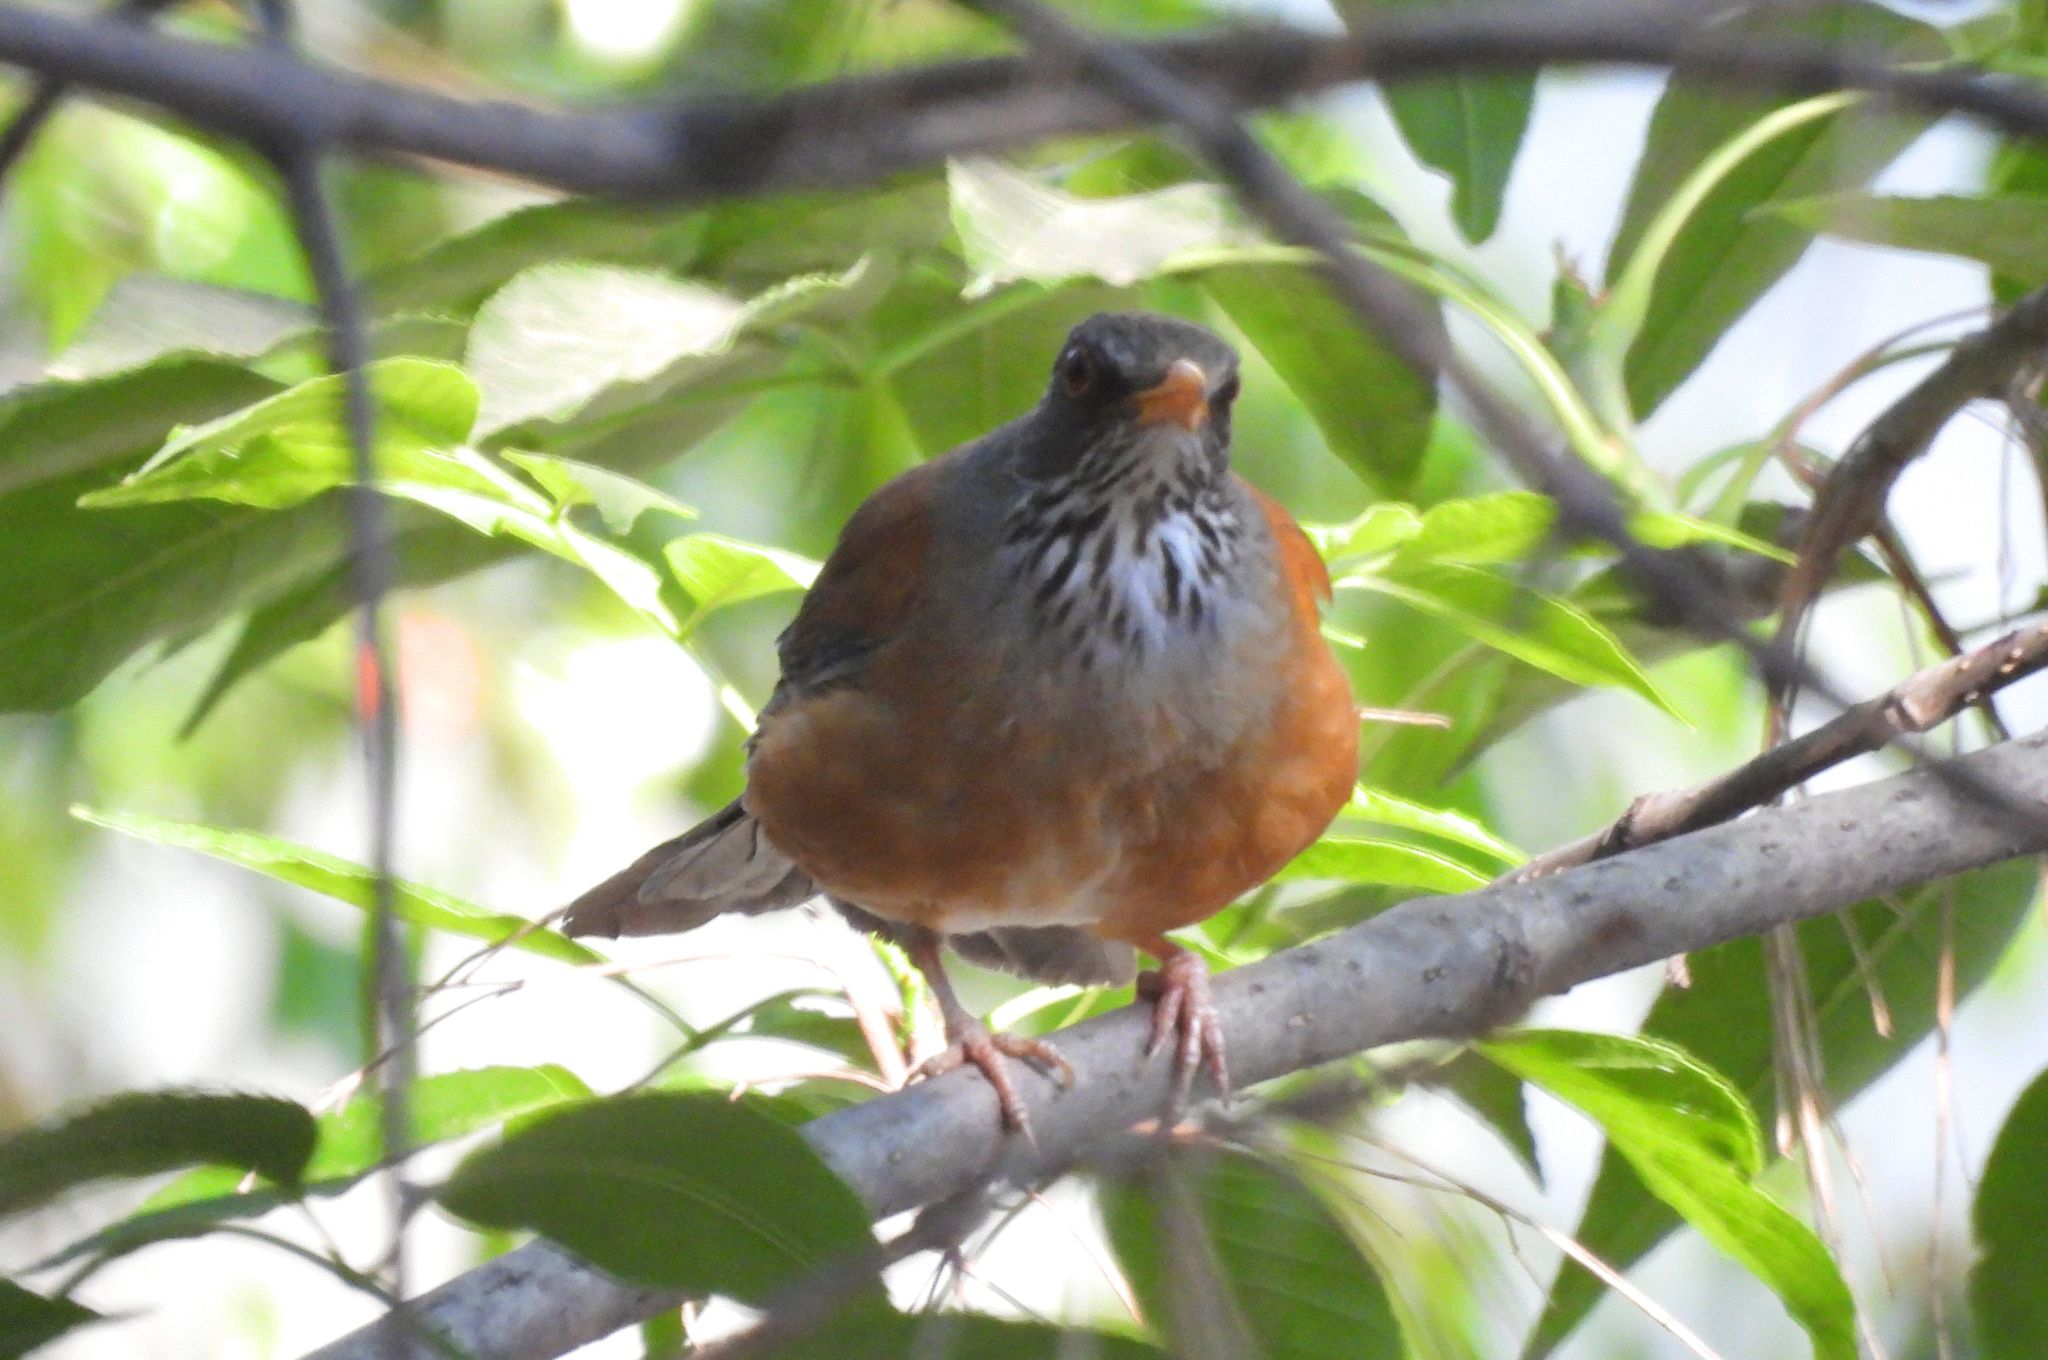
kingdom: Animalia
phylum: Chordata
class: Aves
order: Passeriformes
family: Turdidae
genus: Turdus
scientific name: Turdus rufopalliatus
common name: Rufous-backed robin
